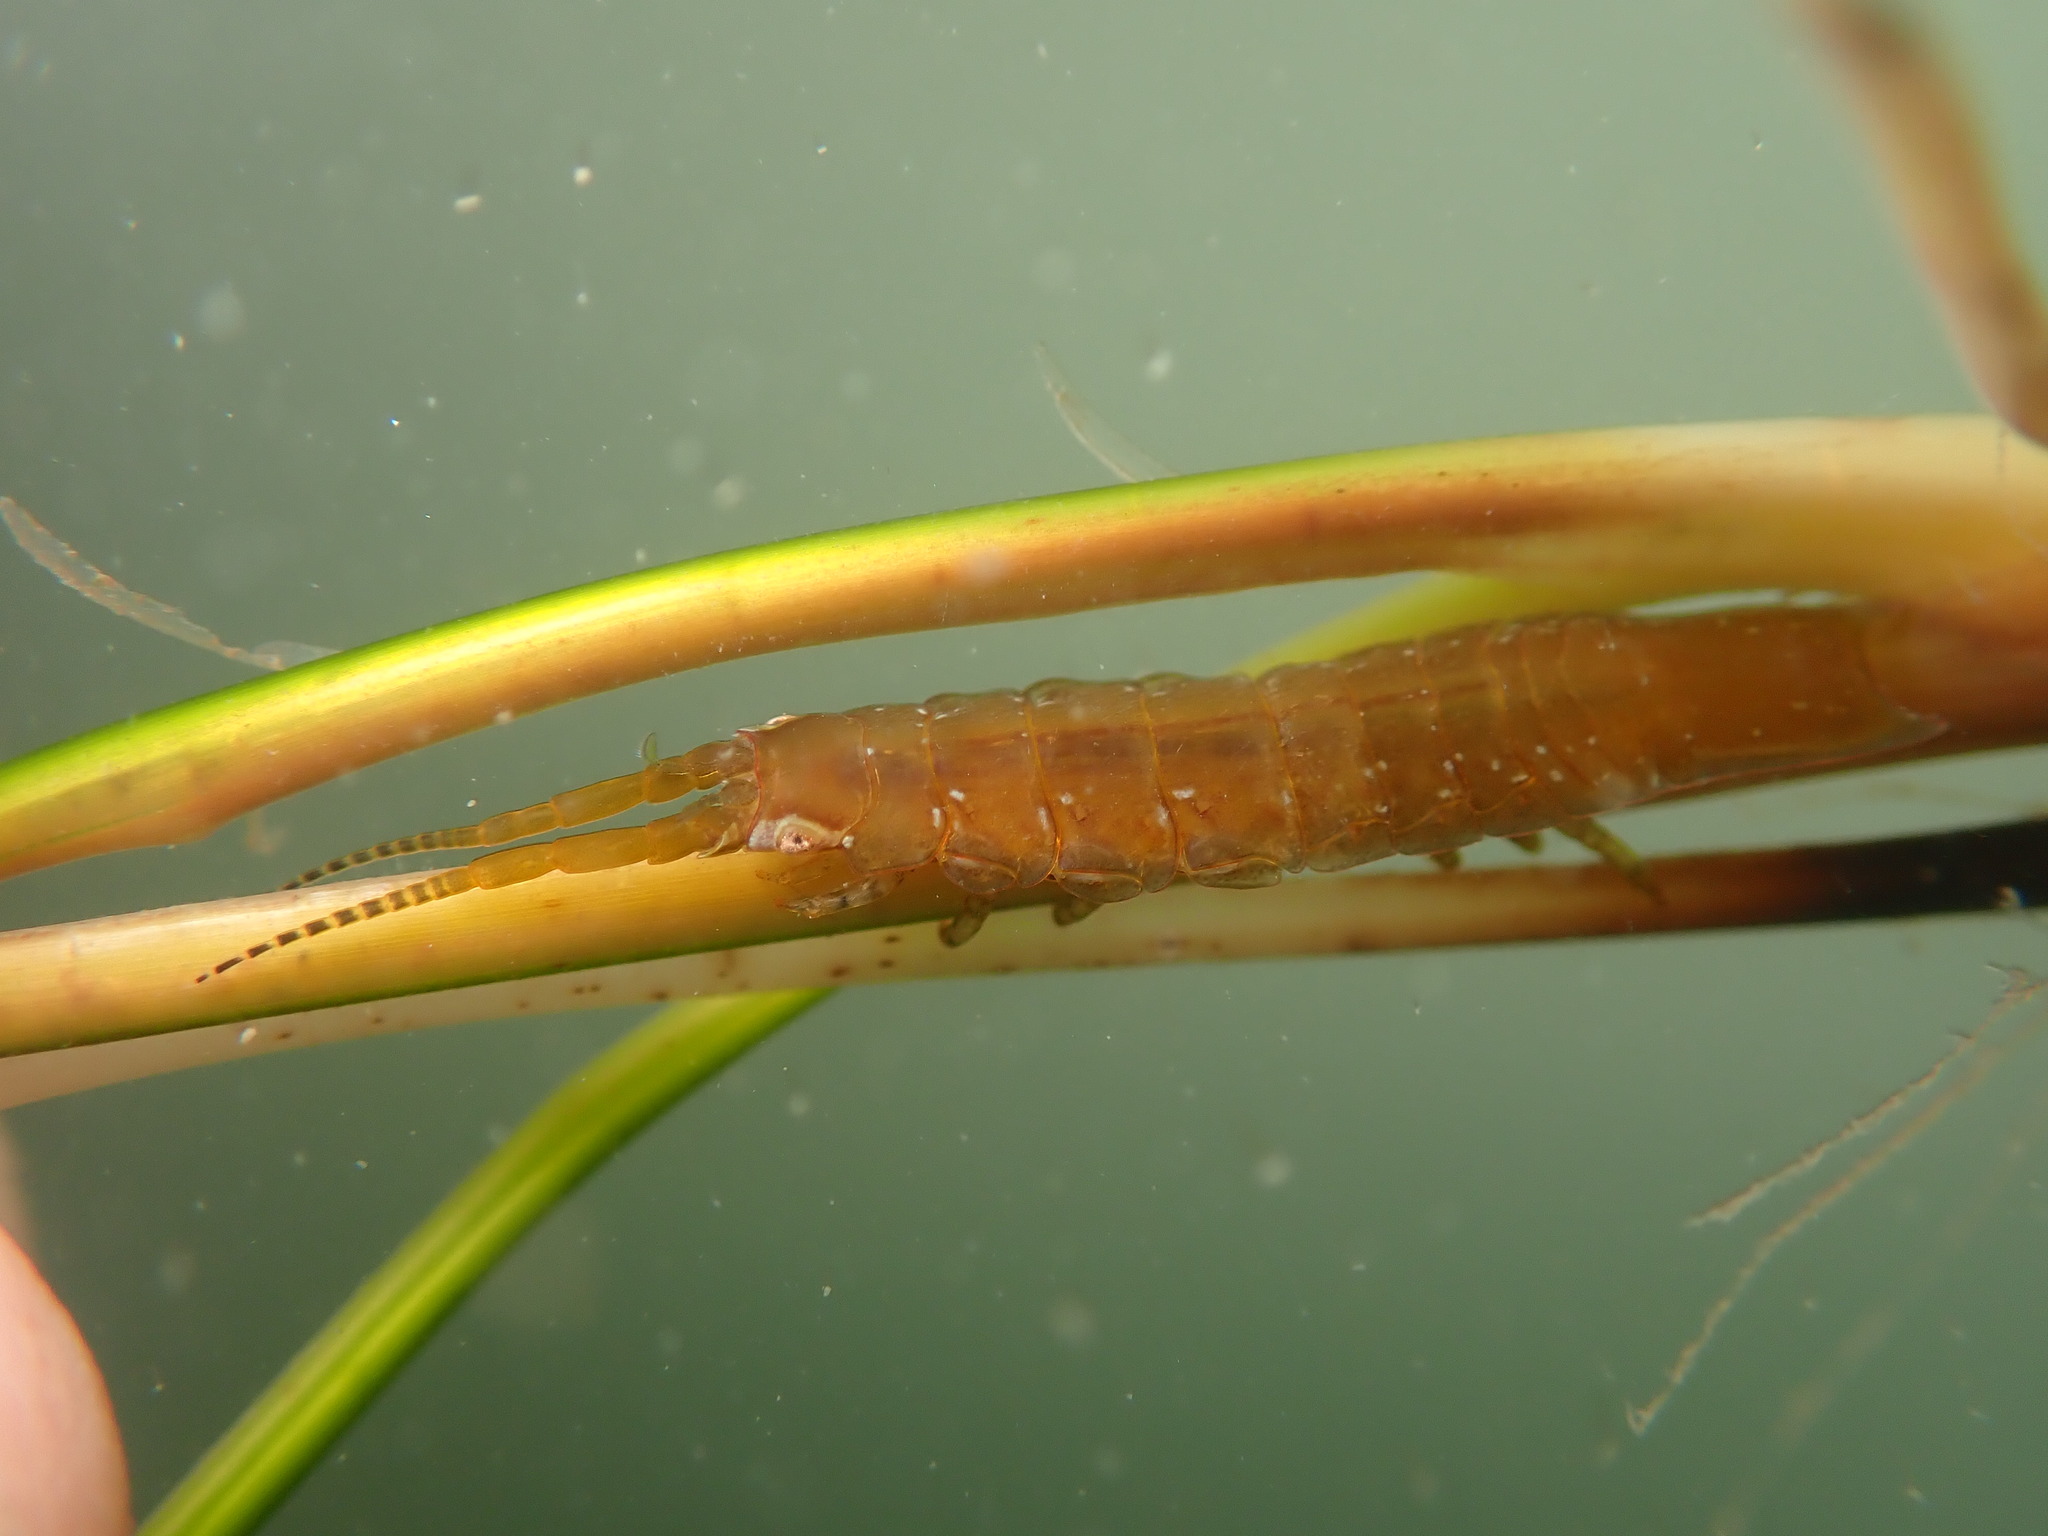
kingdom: Animalia
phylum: Arthropoda
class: Malacostraca
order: Isopoda
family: Idoteidae
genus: Pentidotea
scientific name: Pentidotea resecata
